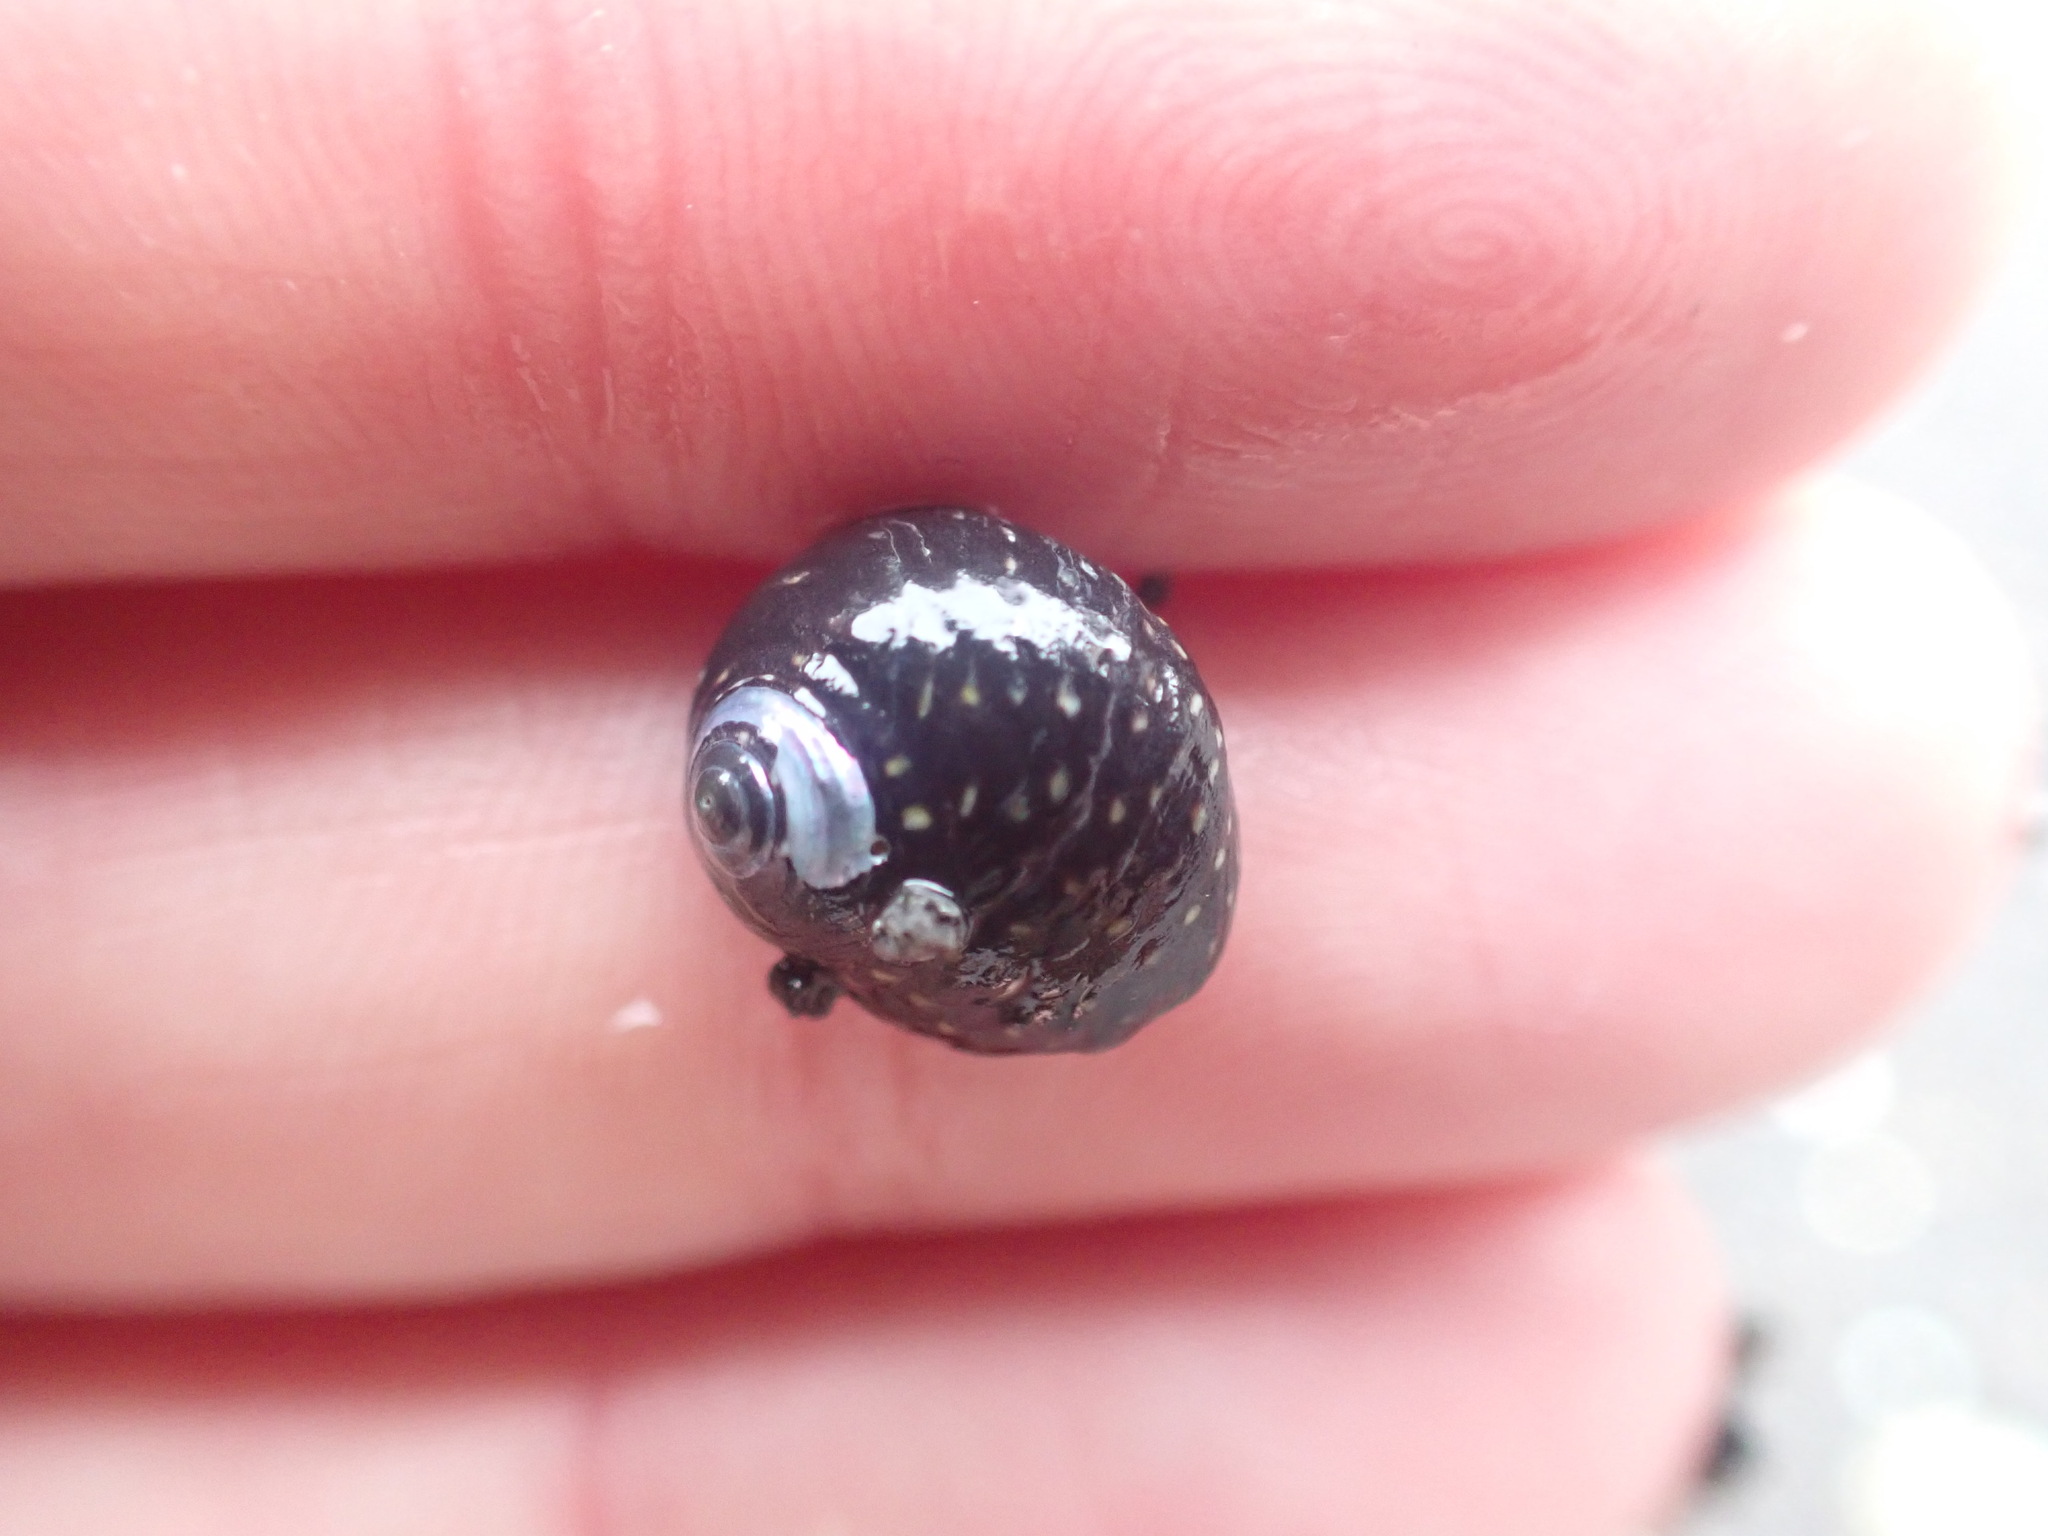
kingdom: Animalia
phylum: Mollusca
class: Gastropoda
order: Trochida
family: Trochidae
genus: Diloma
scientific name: Diloma aridum
